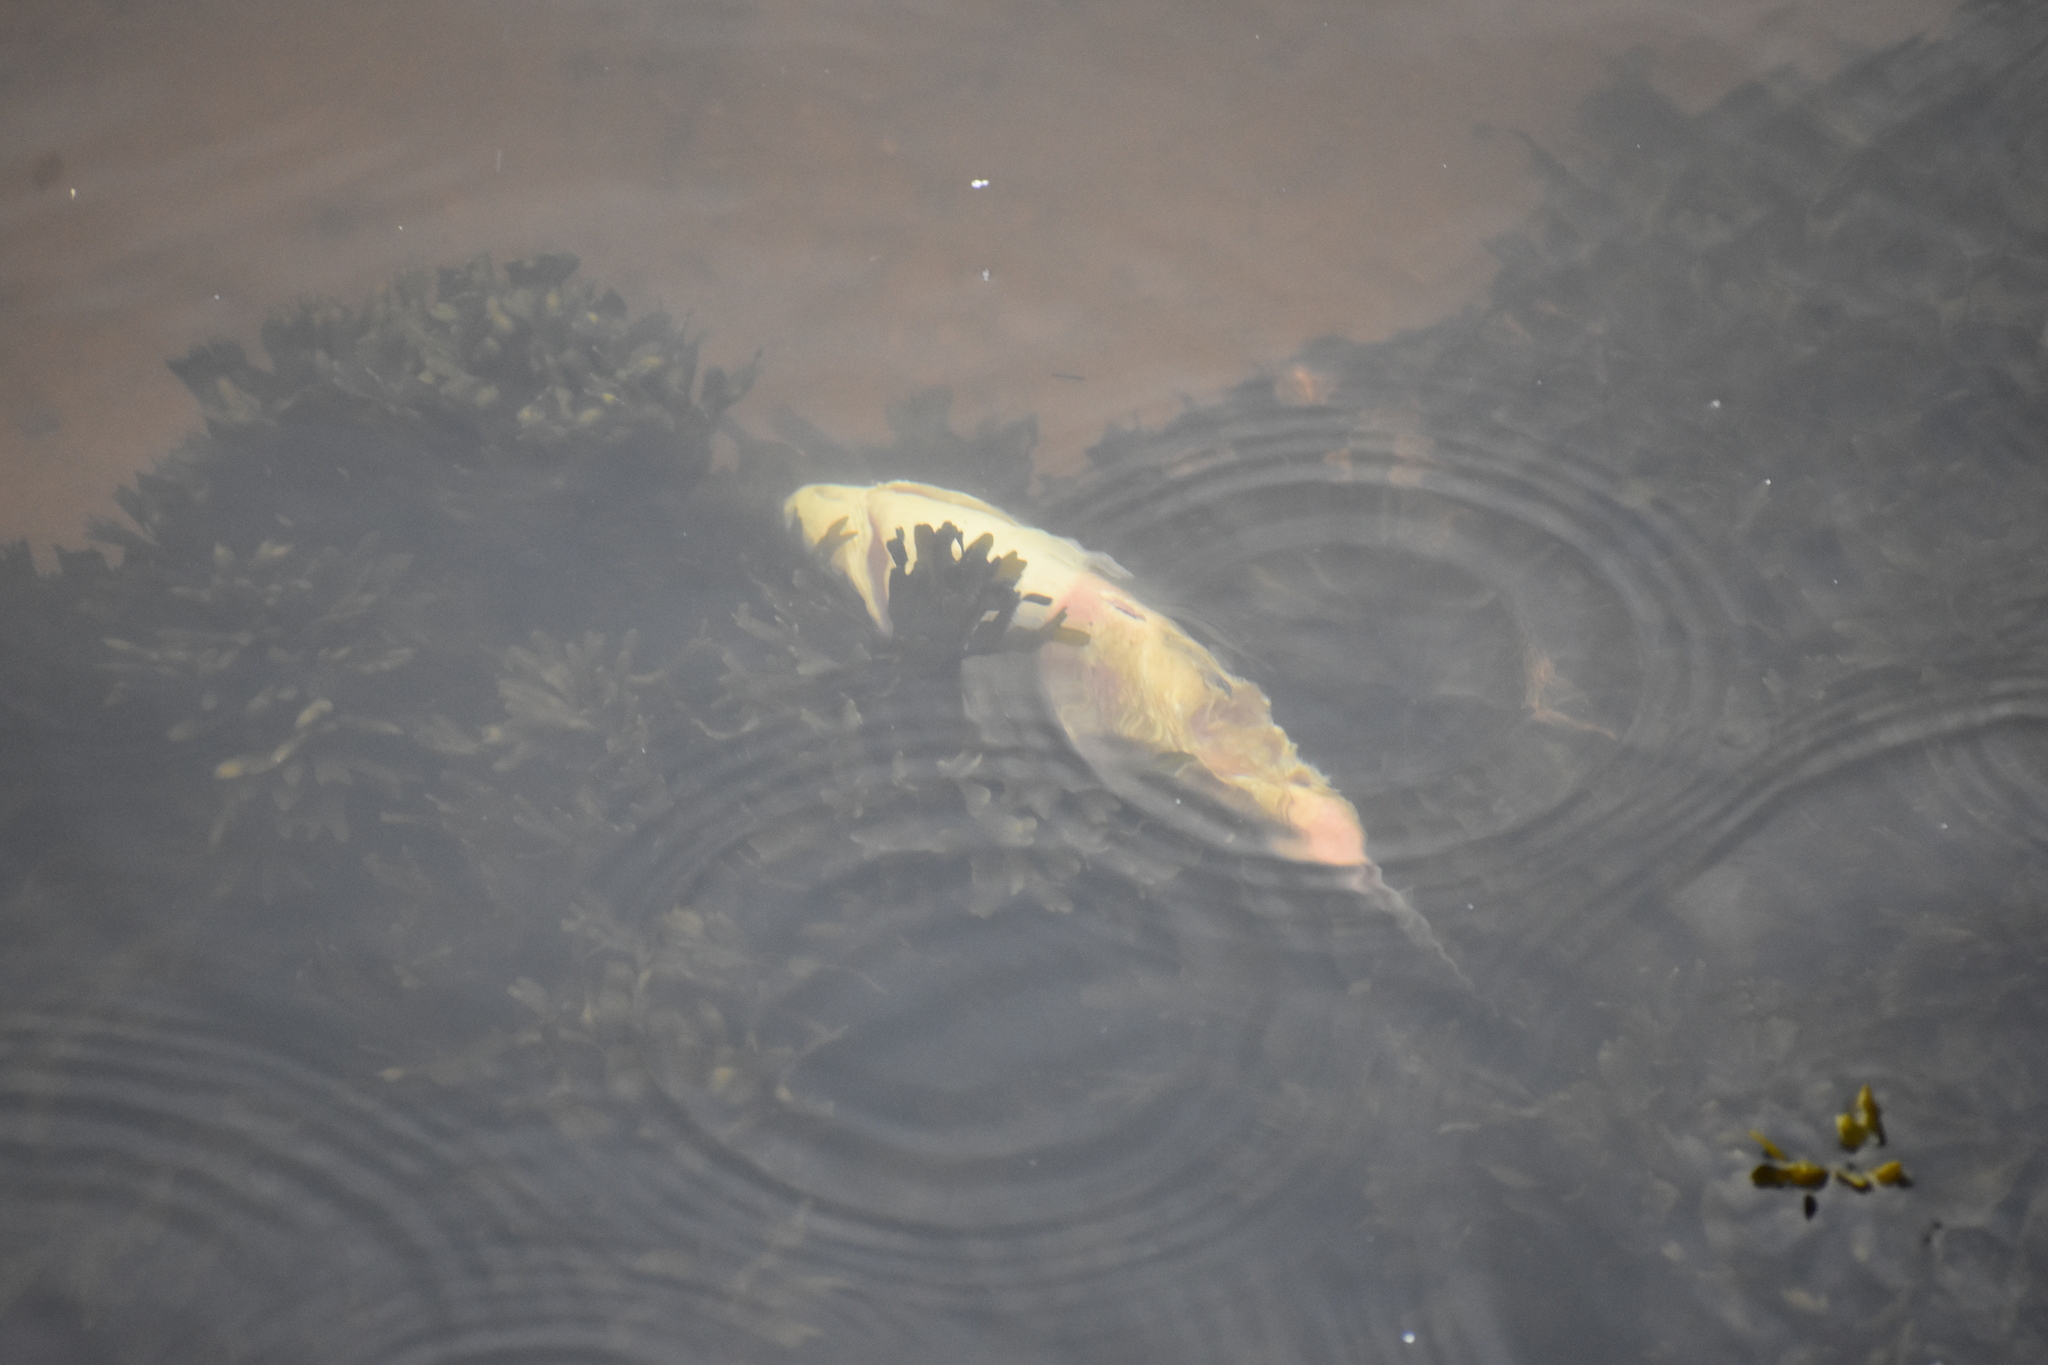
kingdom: Animalia
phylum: Chordata
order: Perciformes
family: Sparidae
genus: Stenotomus
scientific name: Stenotomus chrysops
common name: Scup
